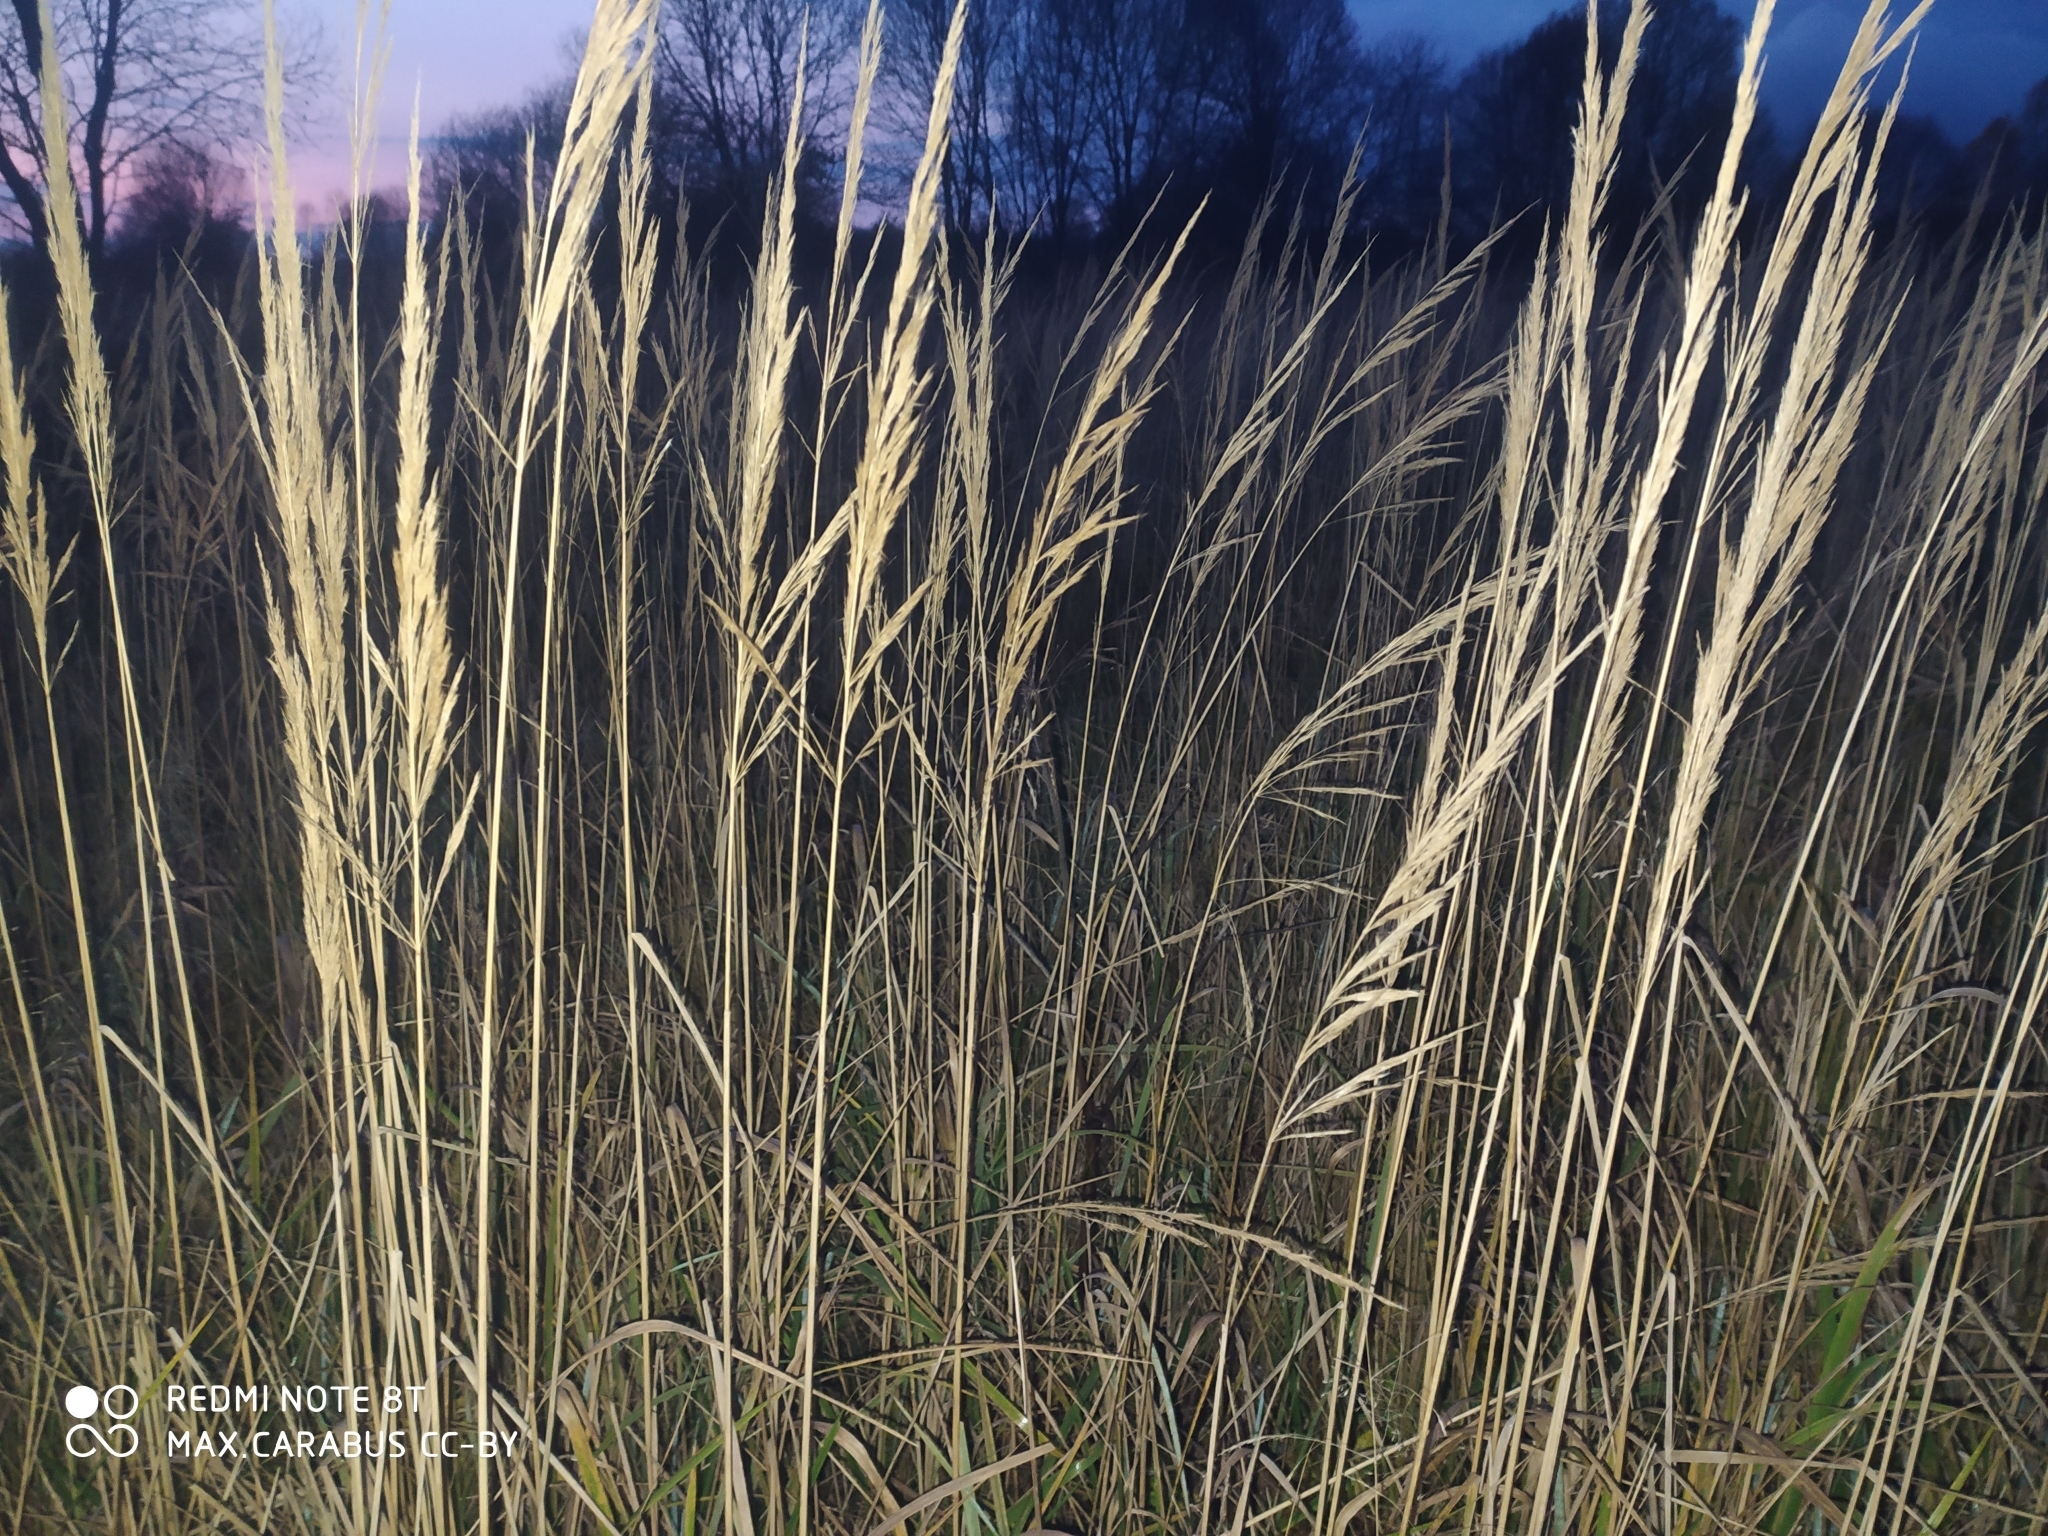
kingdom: Plantae
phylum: Tracheophyta
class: Liliopsida
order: Poales
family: Poaceae
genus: Calamagrostis
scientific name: Calamagrostis epigejos
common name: Wood small-reed
